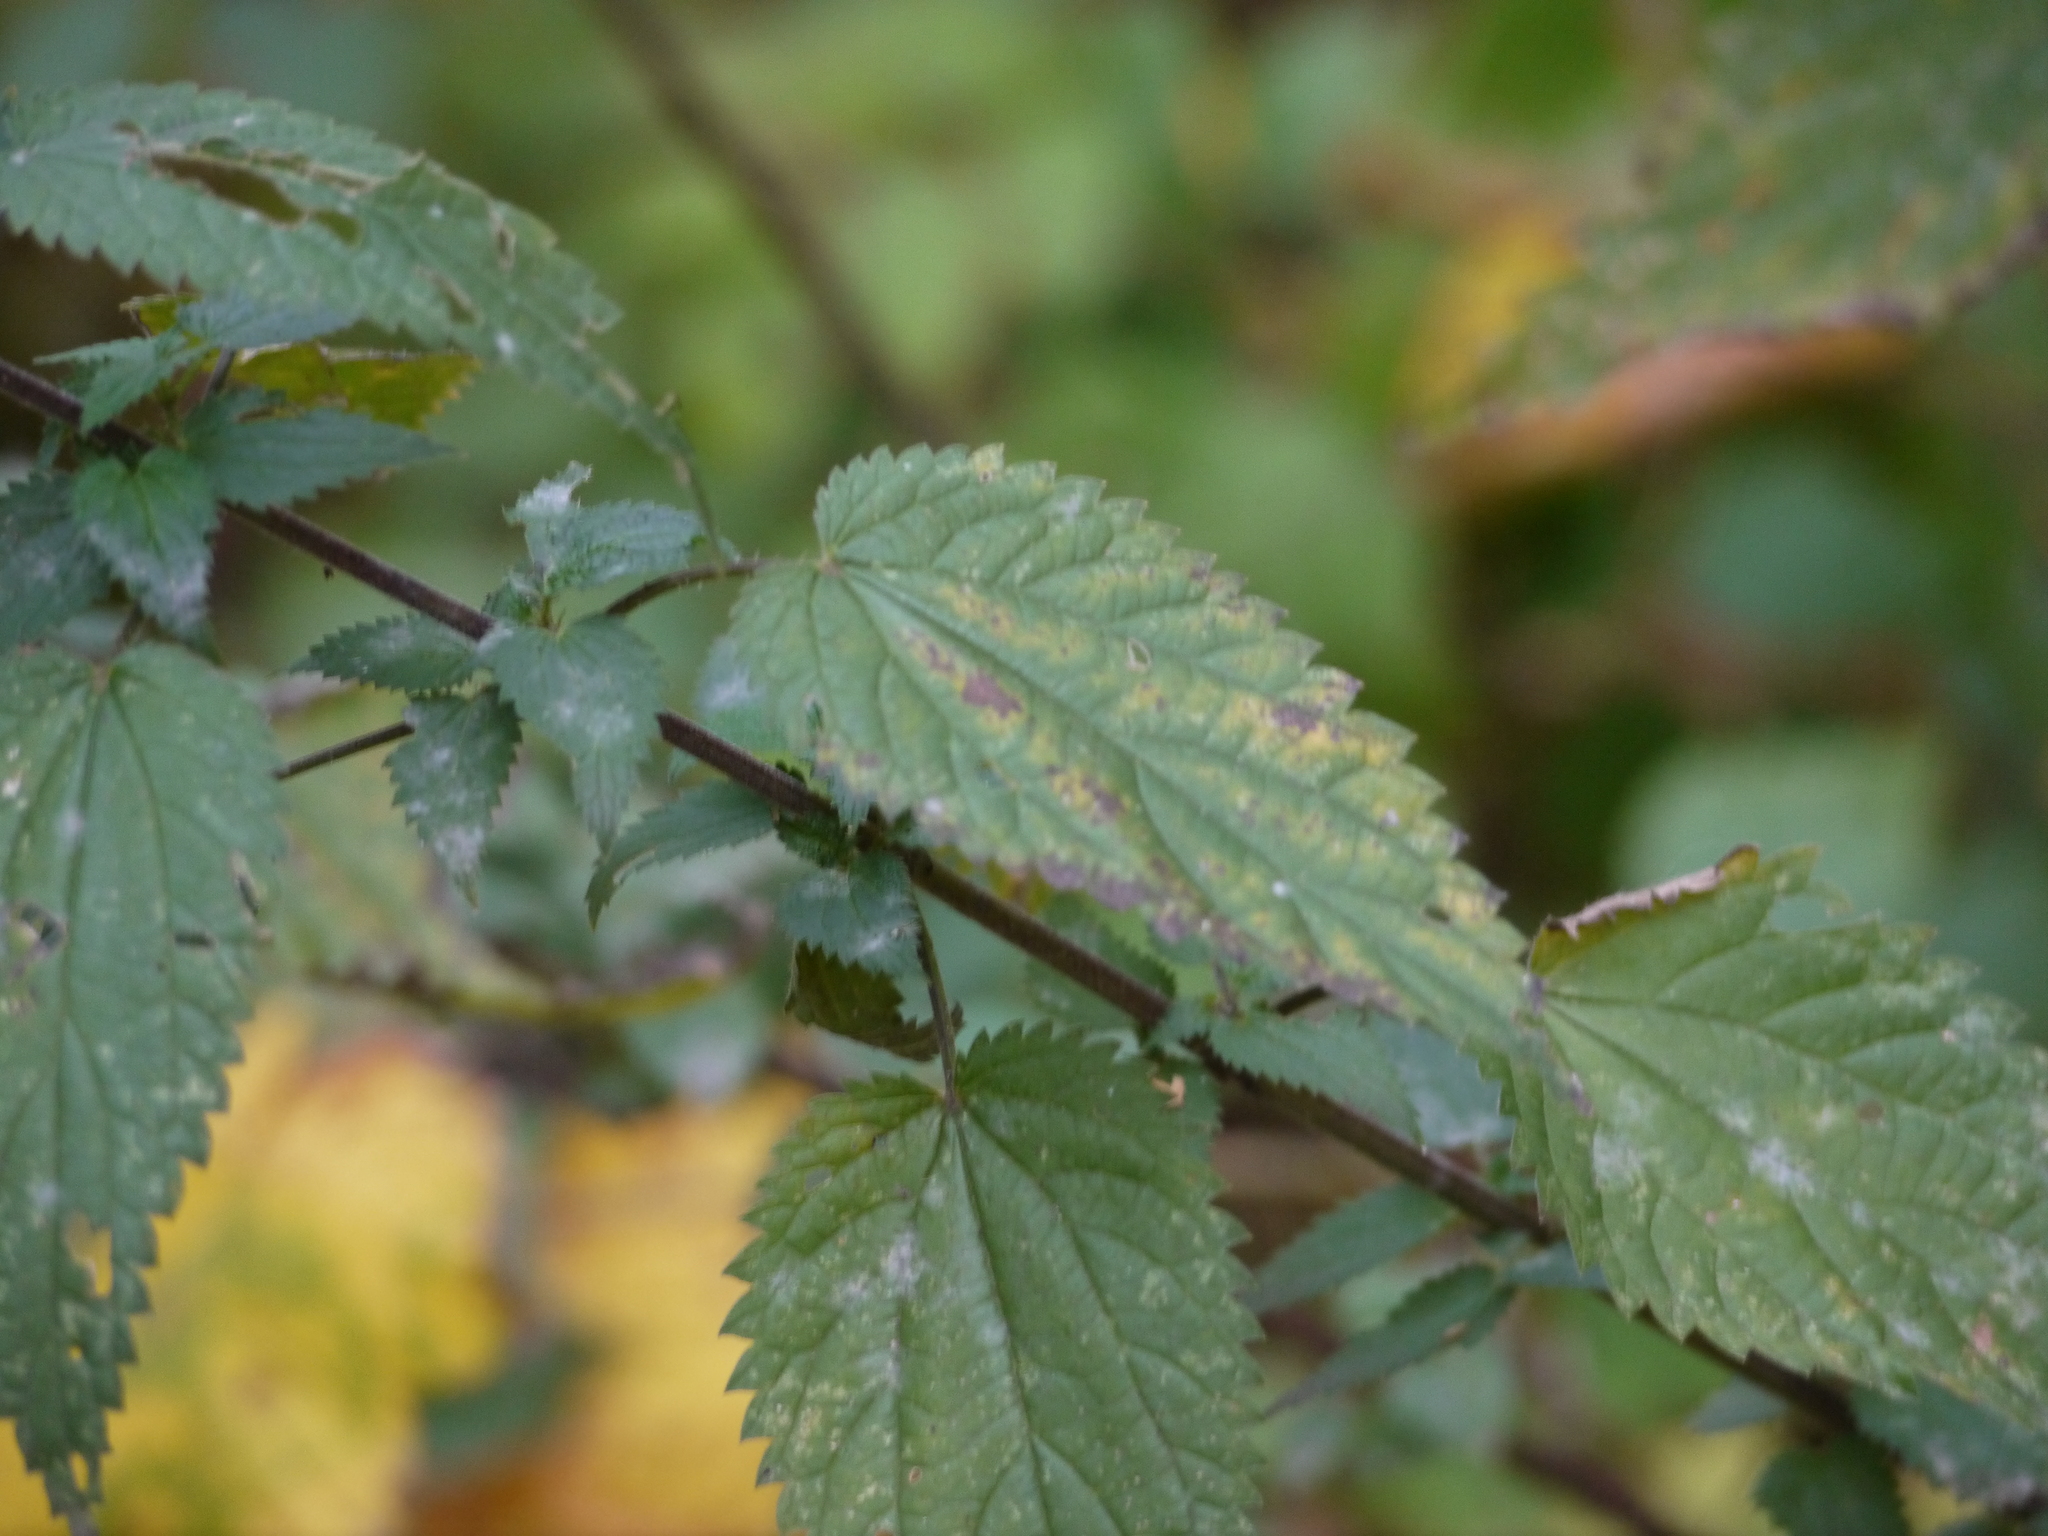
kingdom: Plantae
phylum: Tracheophyta
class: Magnoliopsida
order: Rosales
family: Urticaceae
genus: Urtica
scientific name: Urtica dioica
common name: Common nettle
